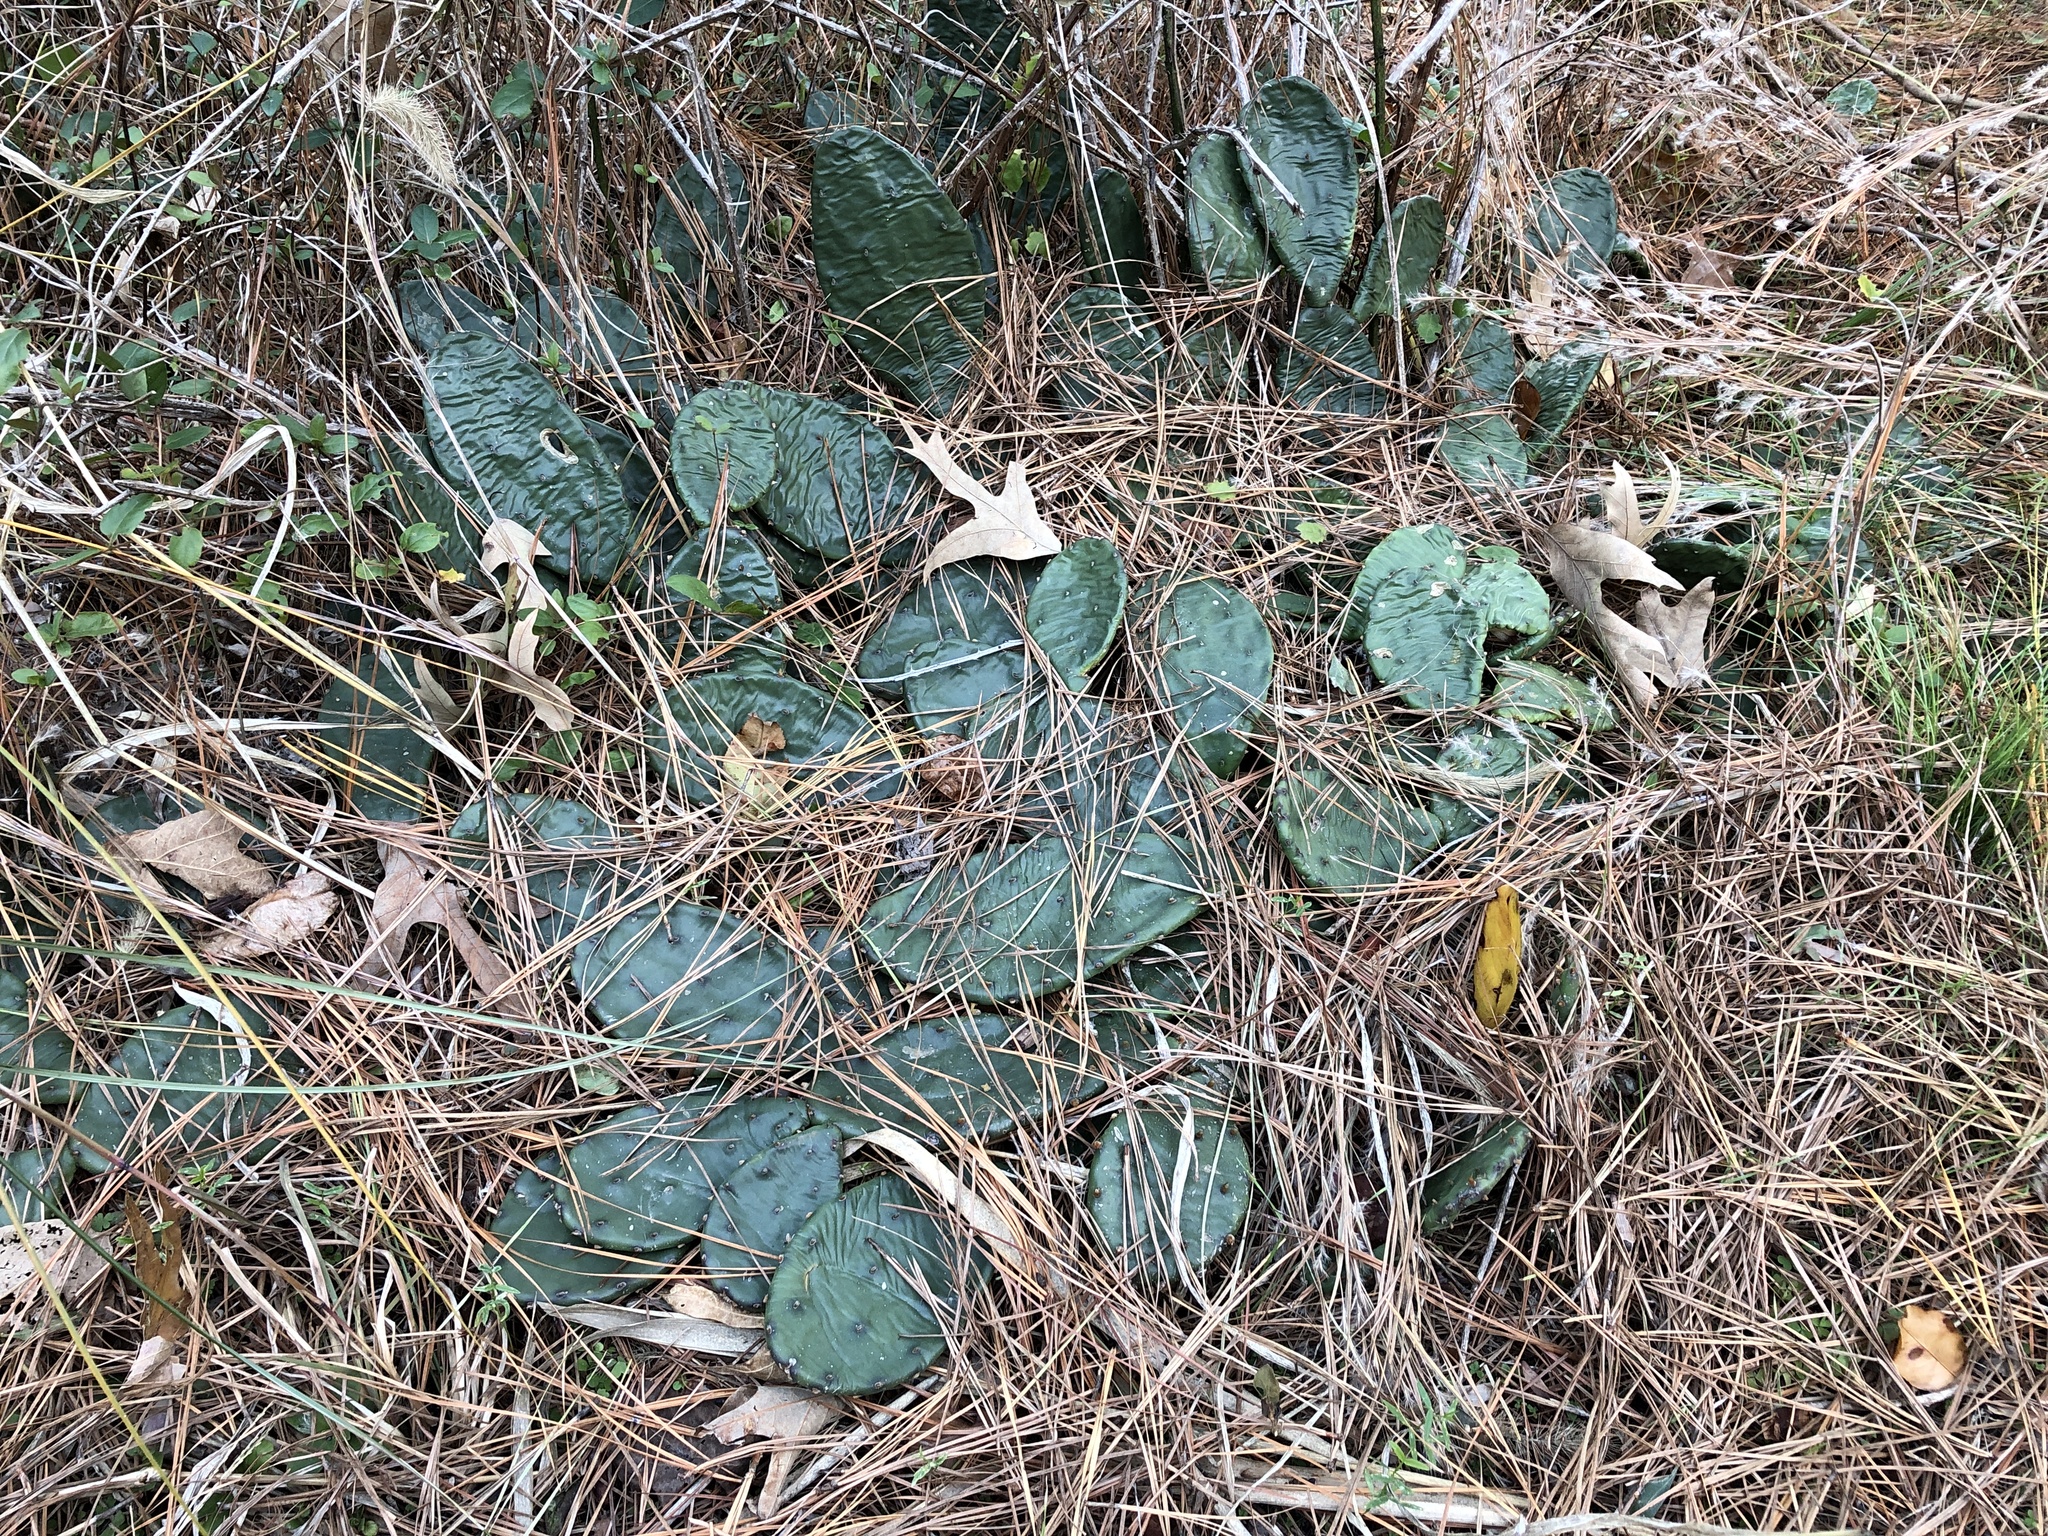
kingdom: Plantae
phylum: Tracheophyta
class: Magnoliopsida
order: Caryophyllales
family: Cactaceae
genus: Opuntia
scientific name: Opuntia humifusa
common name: Eastern prickly-pear
